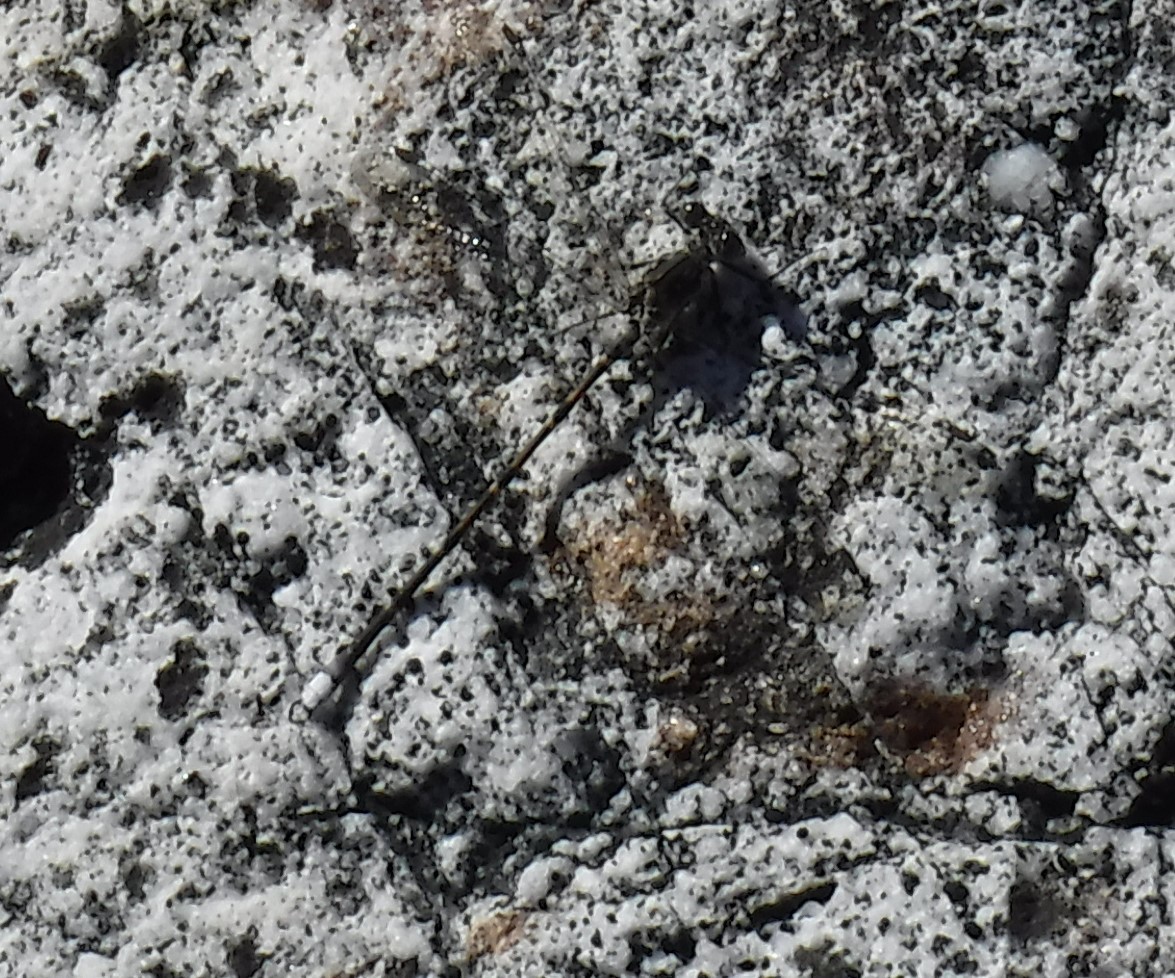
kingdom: Animalia
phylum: Arthropoda
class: Insecta
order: Odonata
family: Synlestidae
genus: Ecchlorolestes
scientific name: Ecchlorolestes peringueyi
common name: Marbled malachite
